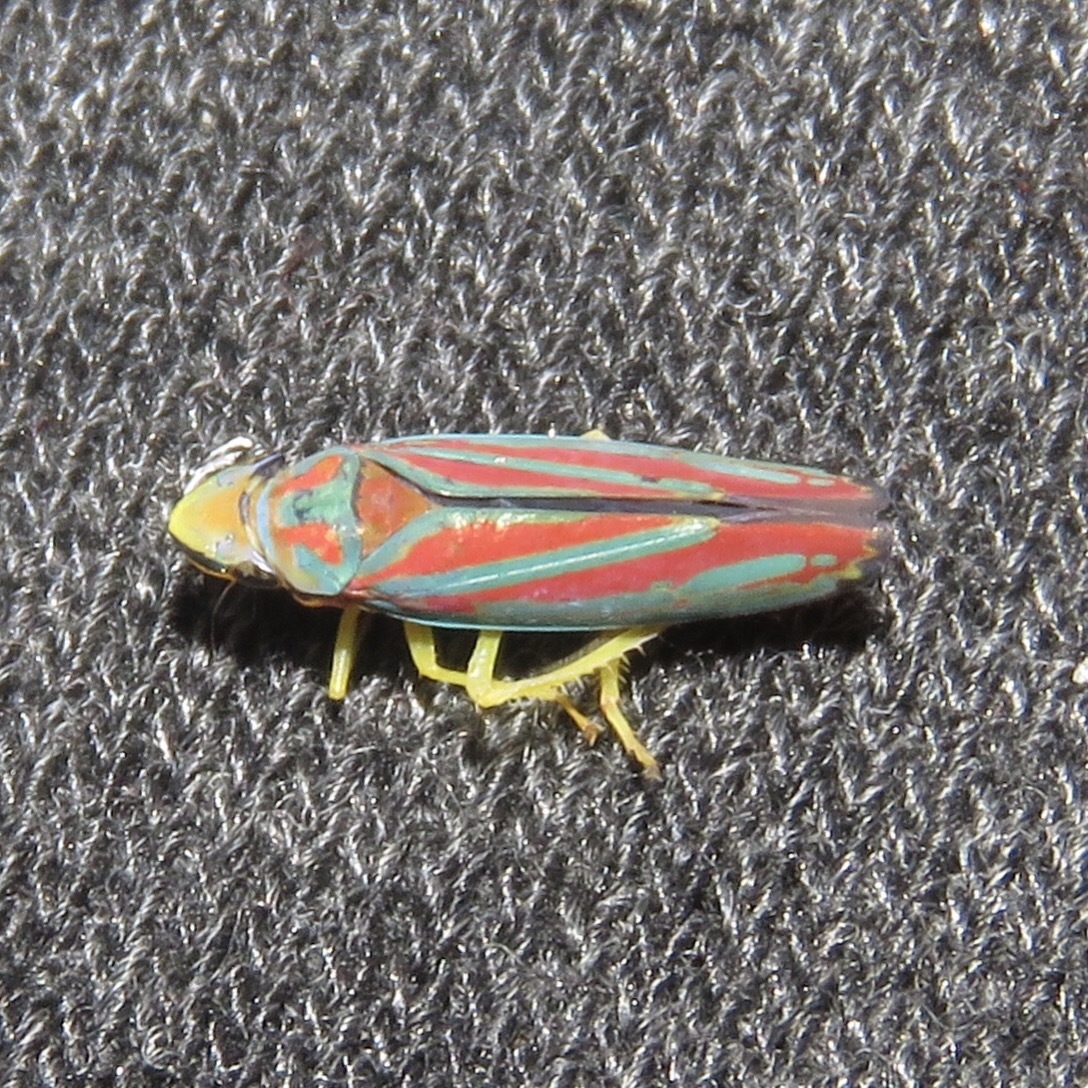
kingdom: Animalia
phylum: Arthropoda
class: Insecta
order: Hemiptera
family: Cicadellidae
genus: Graphocephala
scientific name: Graphocephala coccinea
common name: Candy-striped leafhopper
